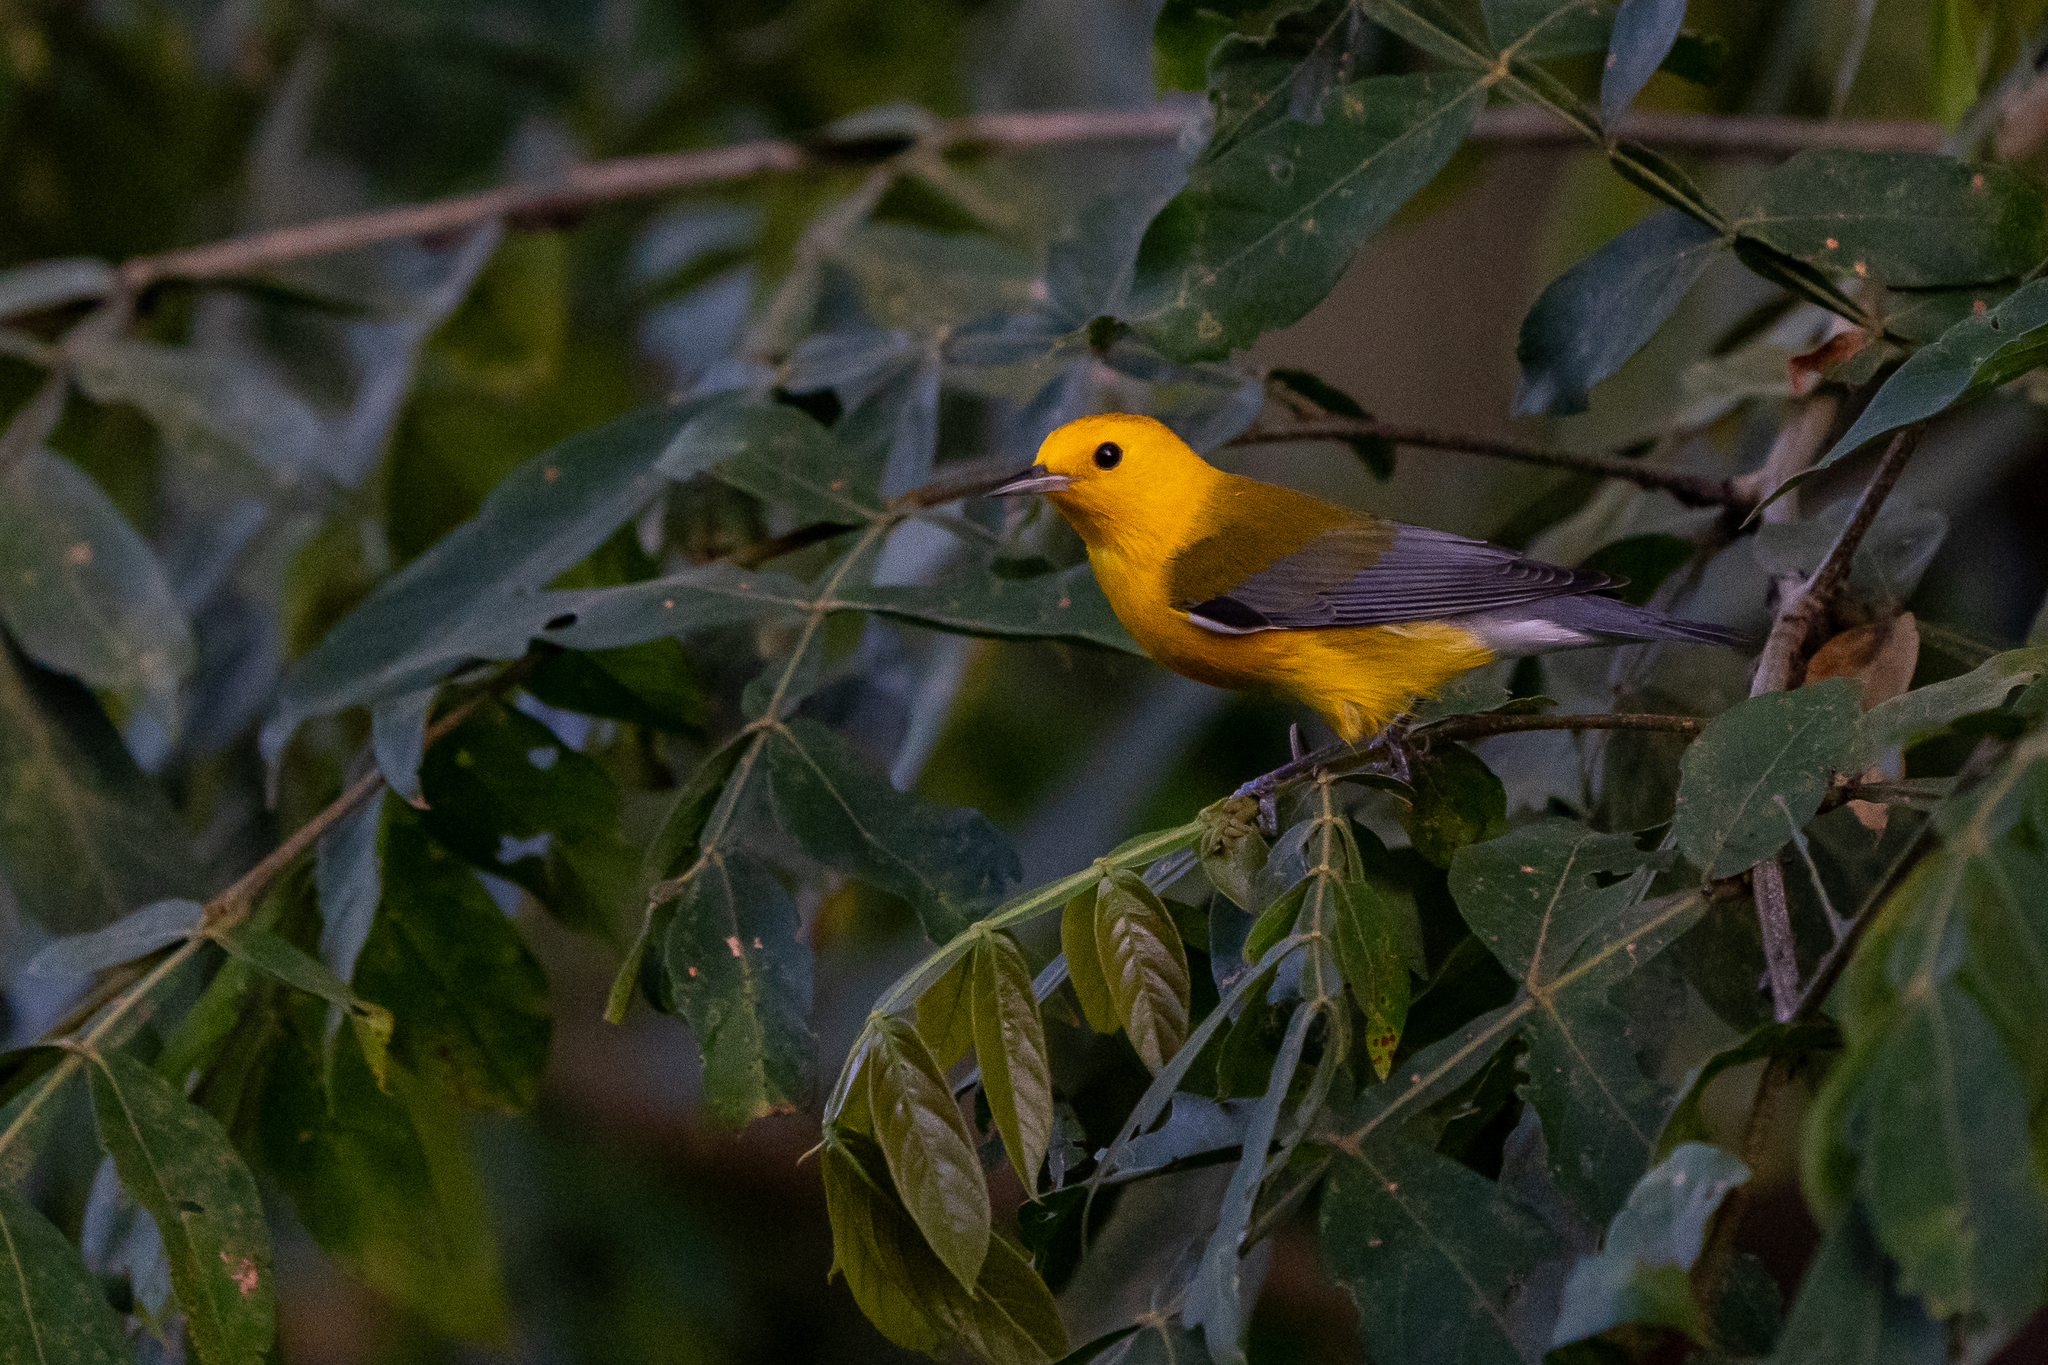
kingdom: Animalia
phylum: Chordata
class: Aves
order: Passeriformes
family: Parulidae
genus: Protonotaria
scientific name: Protonotaria citrea
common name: Prothonotary warbler
